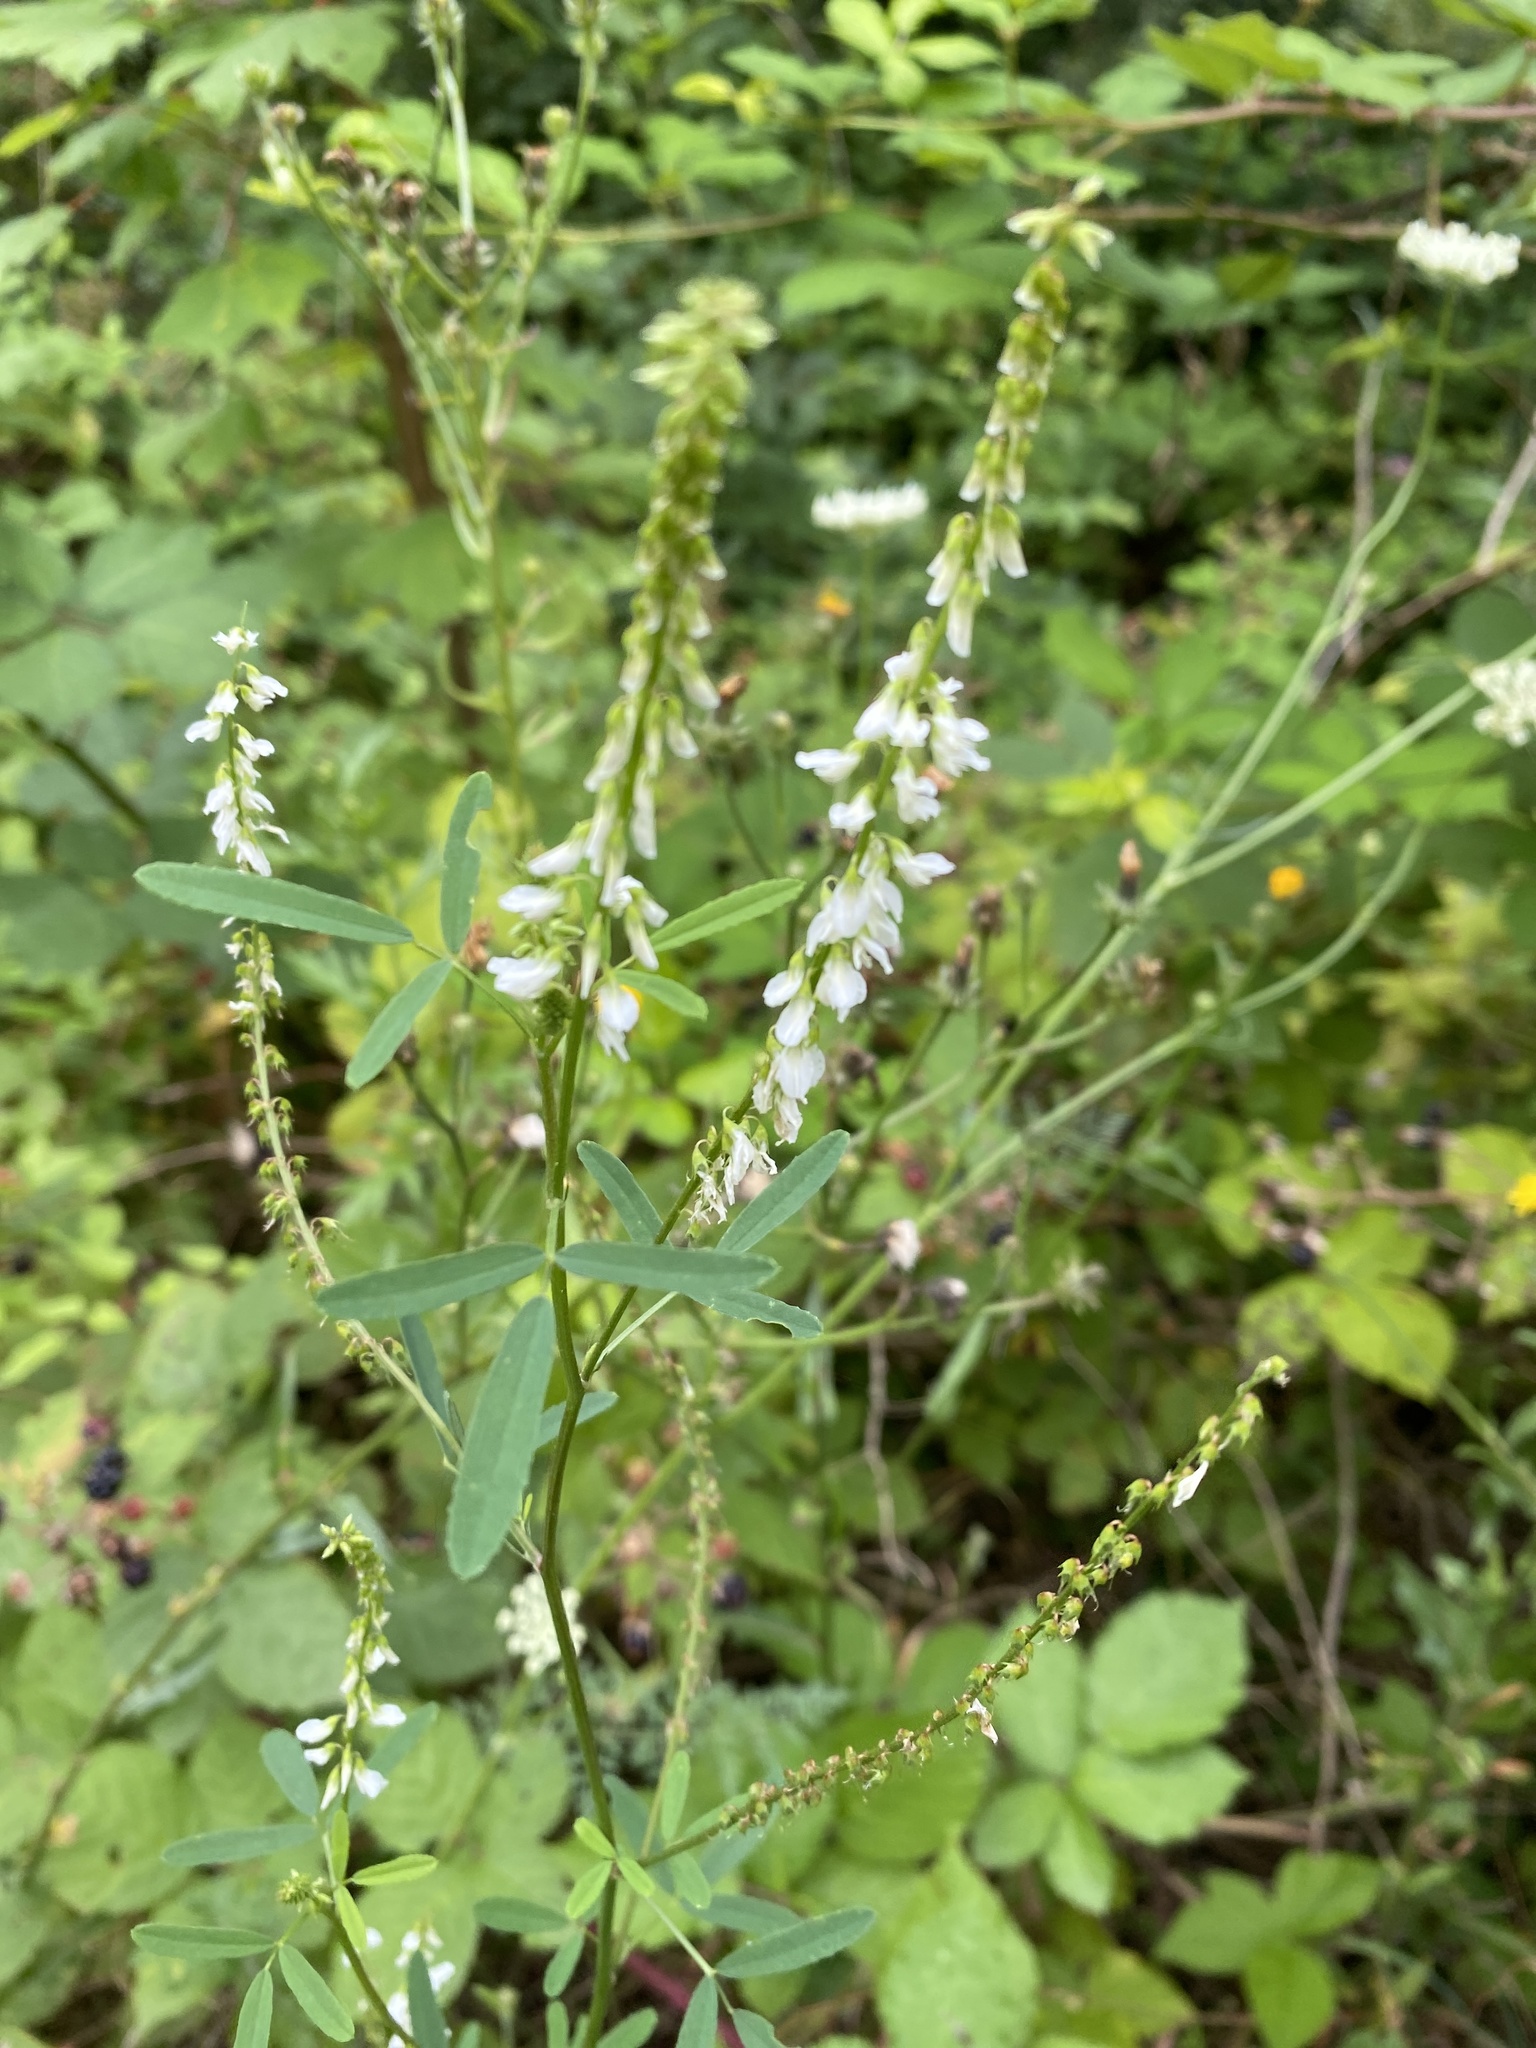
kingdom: Plantae
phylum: Tracheophyta
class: Magnoliopsida
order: Fabales
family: Fabaceae
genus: Melilotus
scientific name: Melilotus albus
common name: White melilot
